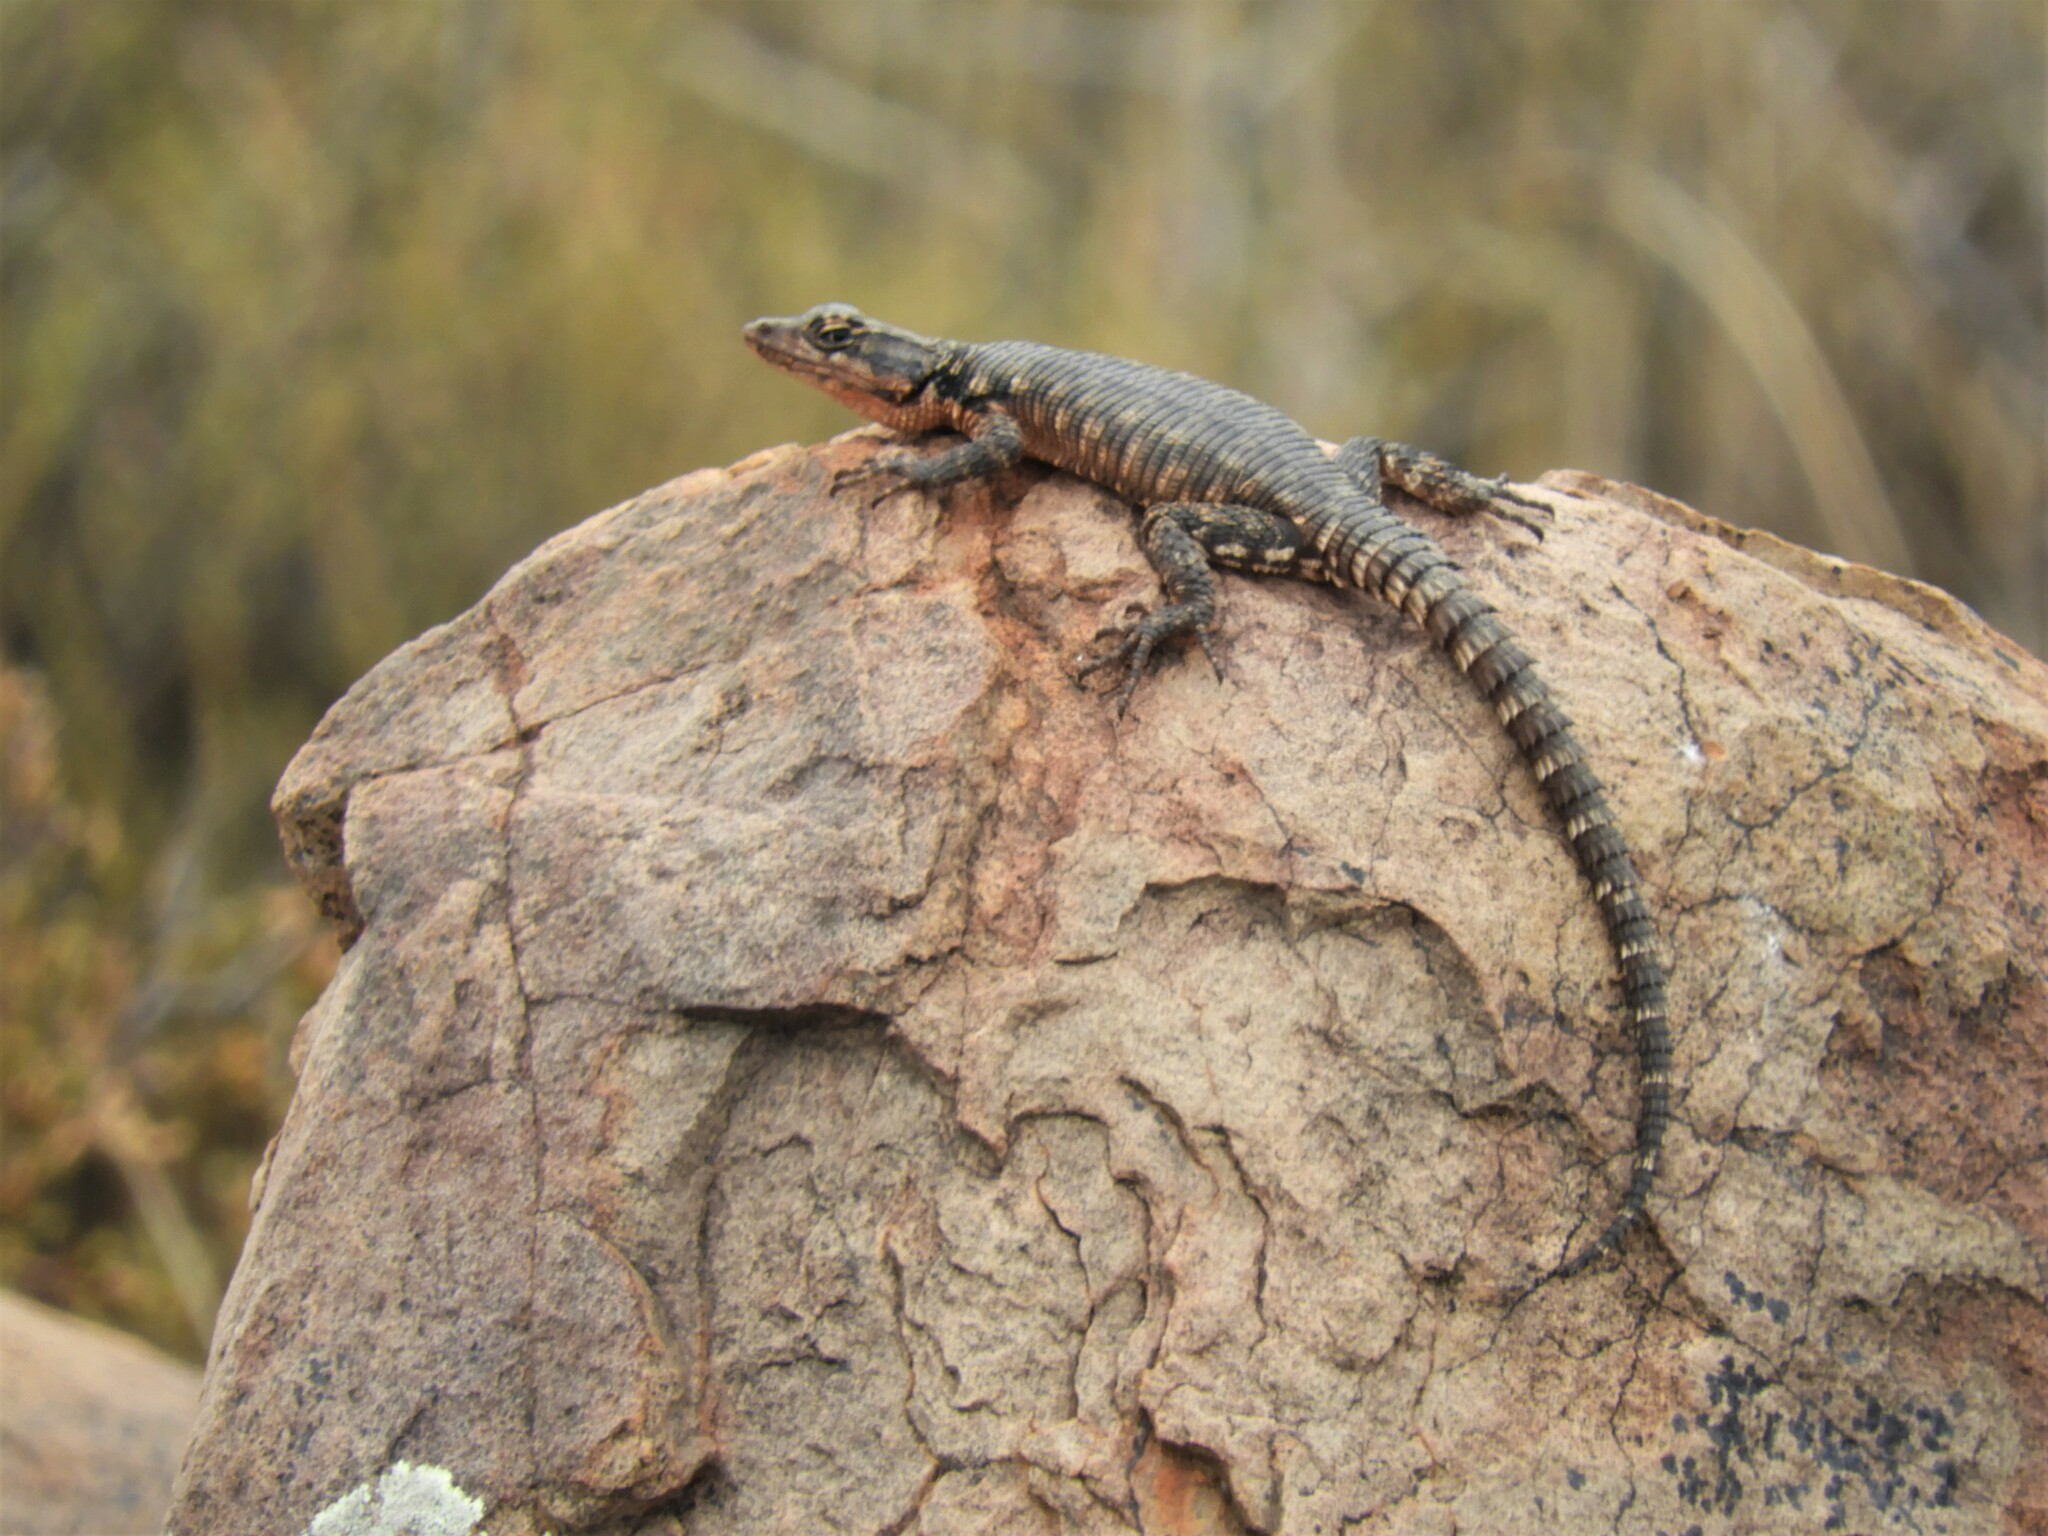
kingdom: Animalia
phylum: Chordata
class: Squamata
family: Cordylidae
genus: Karusasaurus
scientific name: Karusasaurus polyzonus
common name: Karoo girdled lizard
